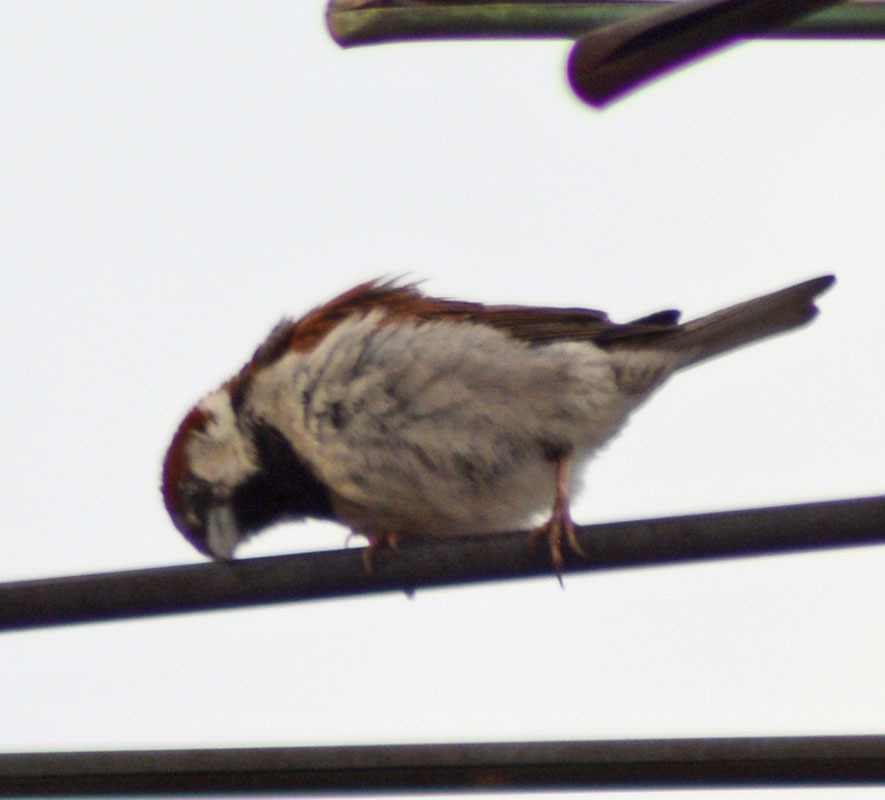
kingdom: Animalia
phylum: Chordata
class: Aves
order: Passeriformes
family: Passeridae
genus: Passer
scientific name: Passer domesticus
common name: House sparrow
